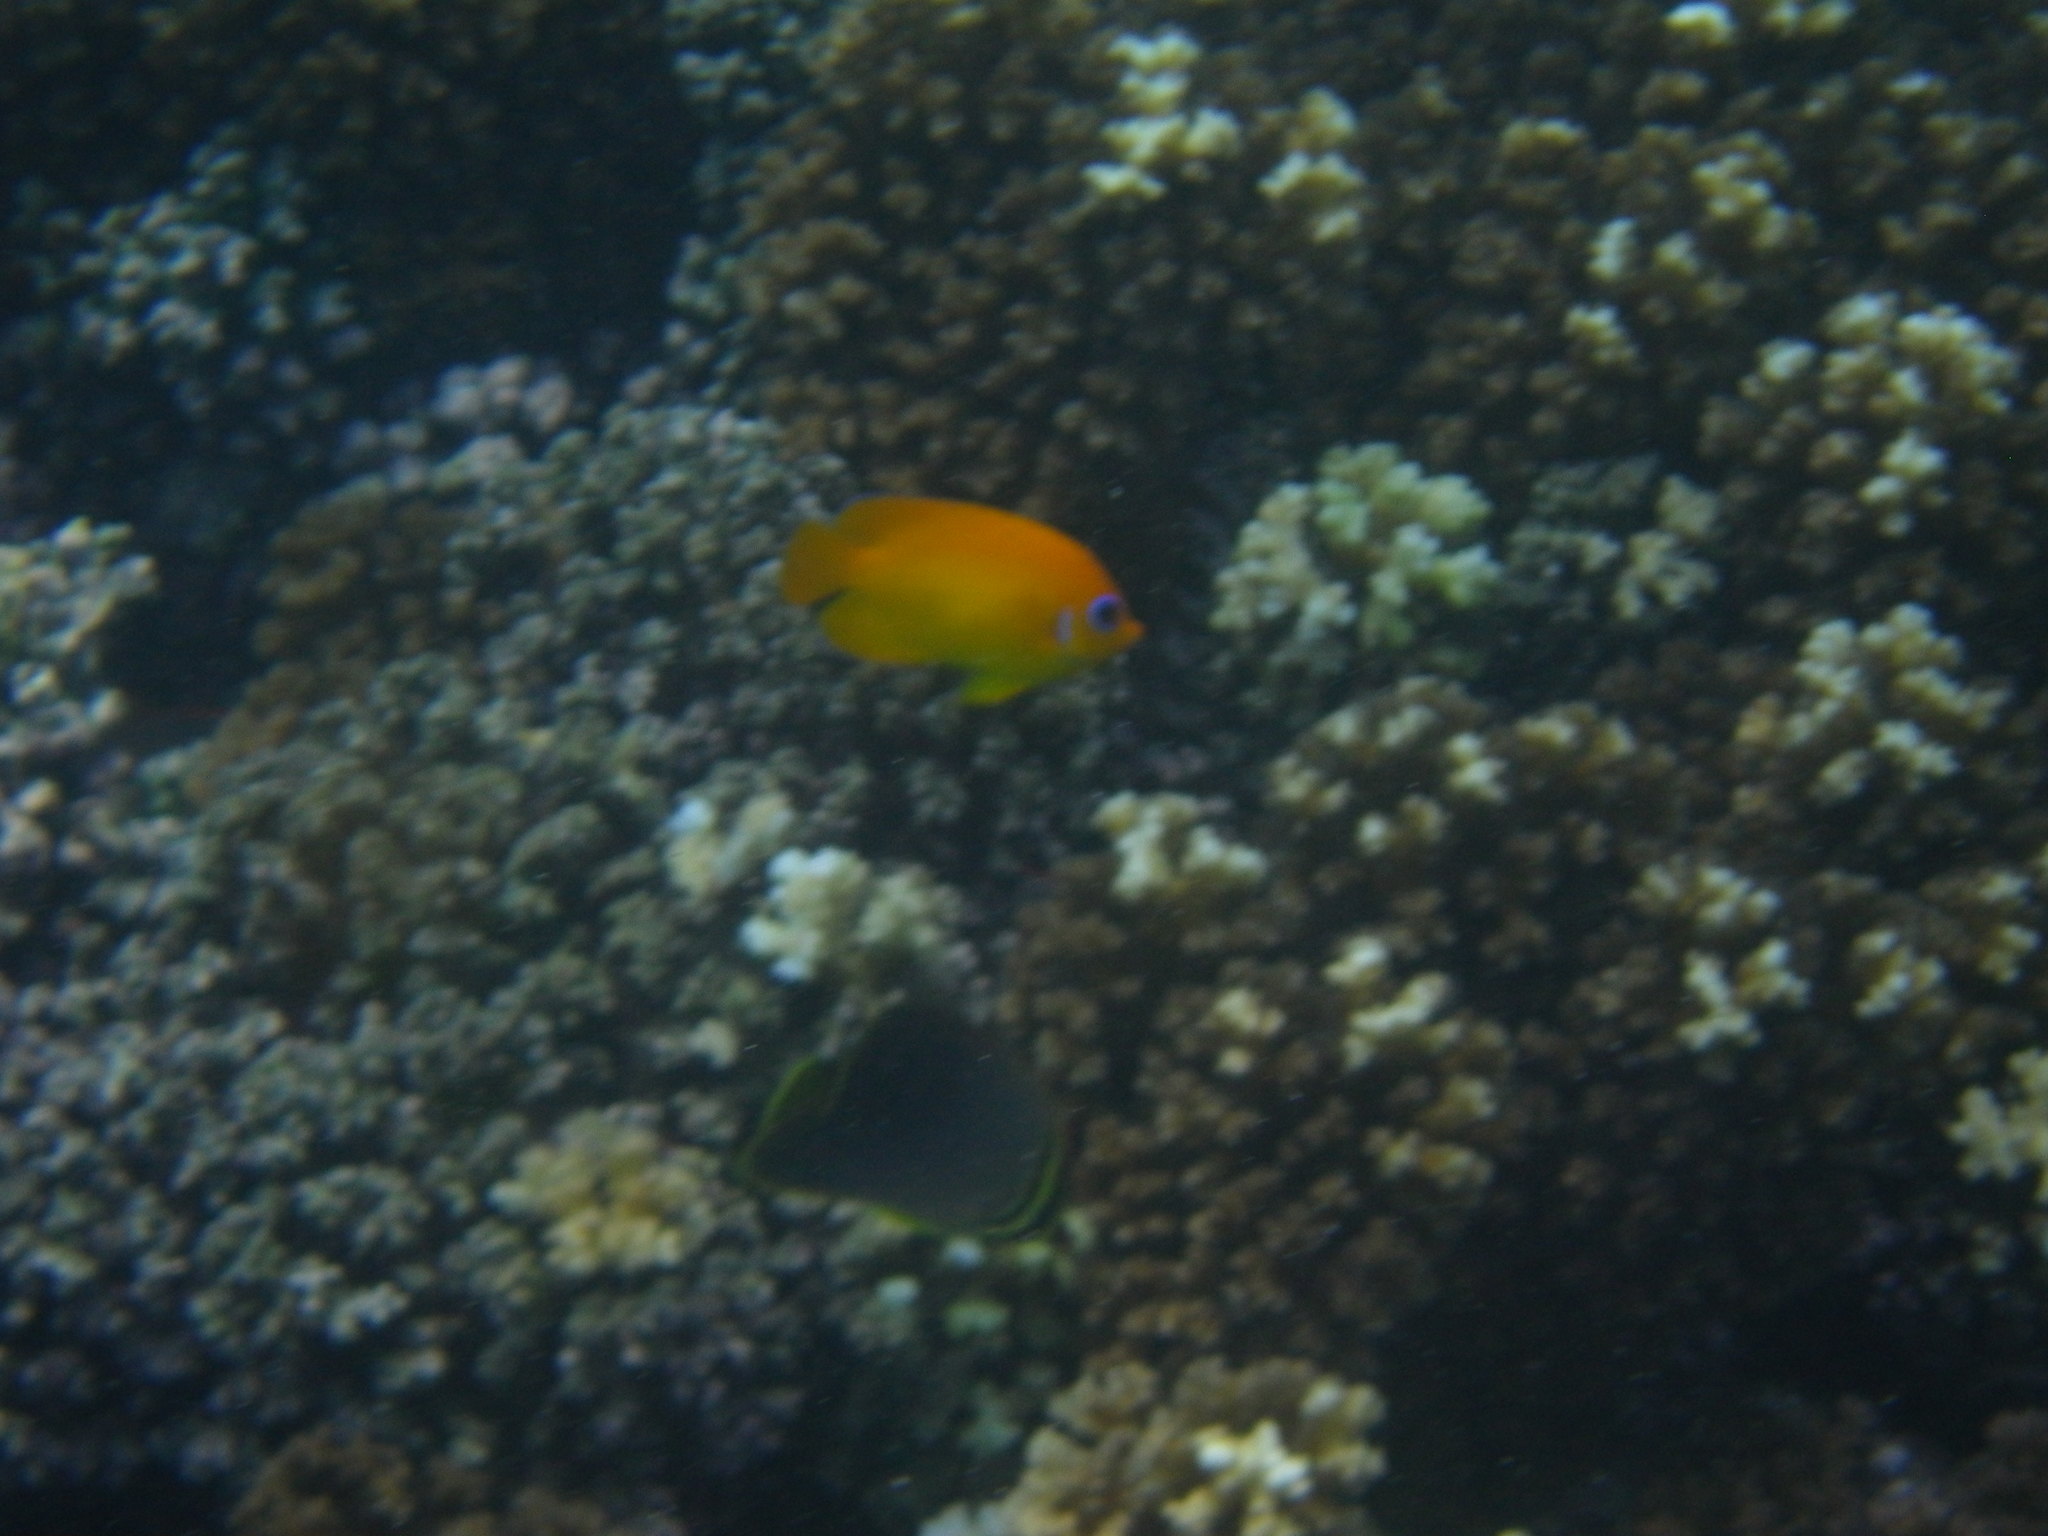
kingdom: Animalia
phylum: Chordata
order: Perciformes
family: Pomacanthidae
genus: Centropyge
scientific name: Centropyge flavissima
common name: Lemonpeel angelfish
